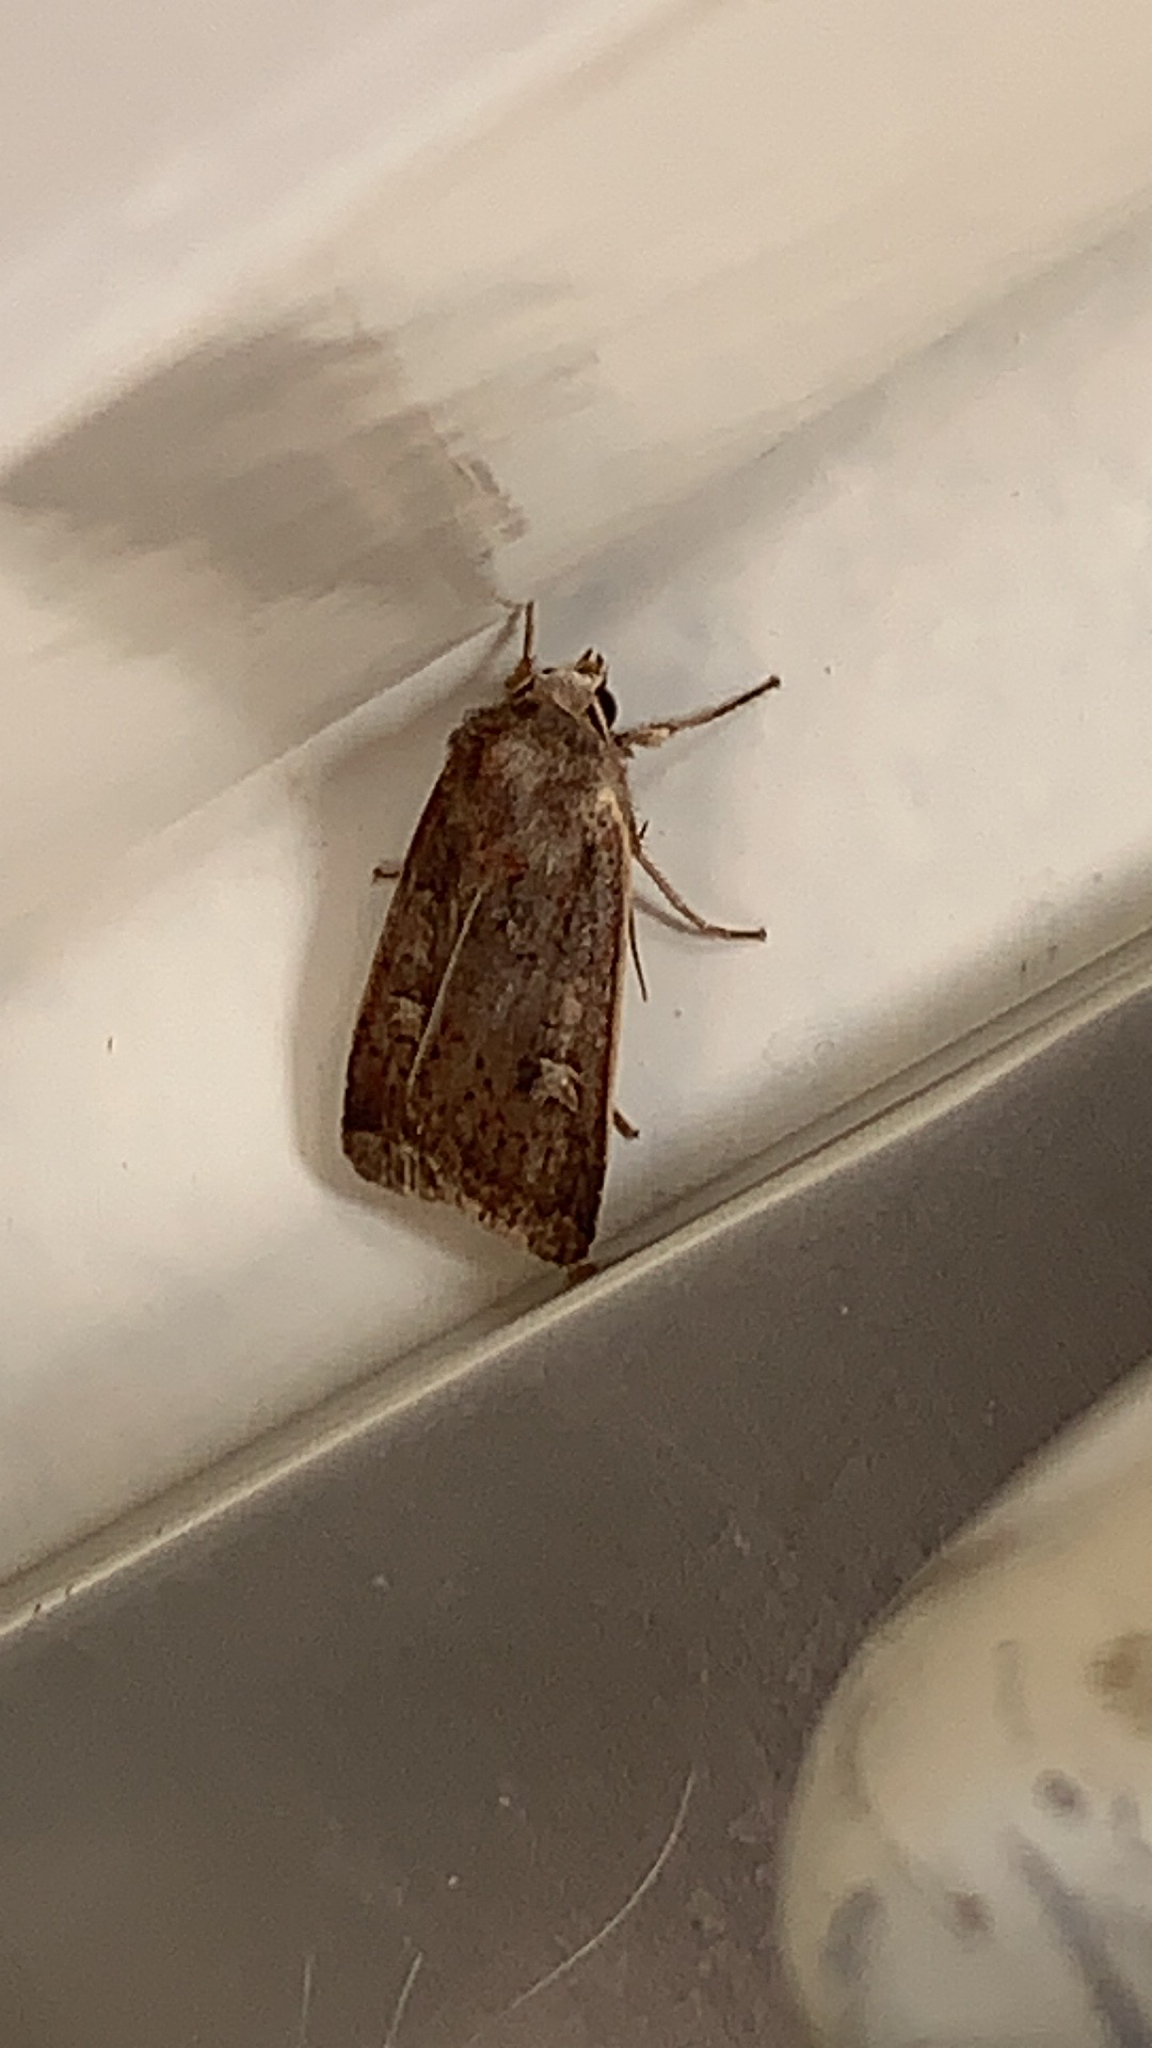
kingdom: Animalia
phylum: Arthropoda
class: Insecta
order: Lepidoptera
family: Noctuidae
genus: Xestia
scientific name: Xestia xanthographa
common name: Square-spot rustic
